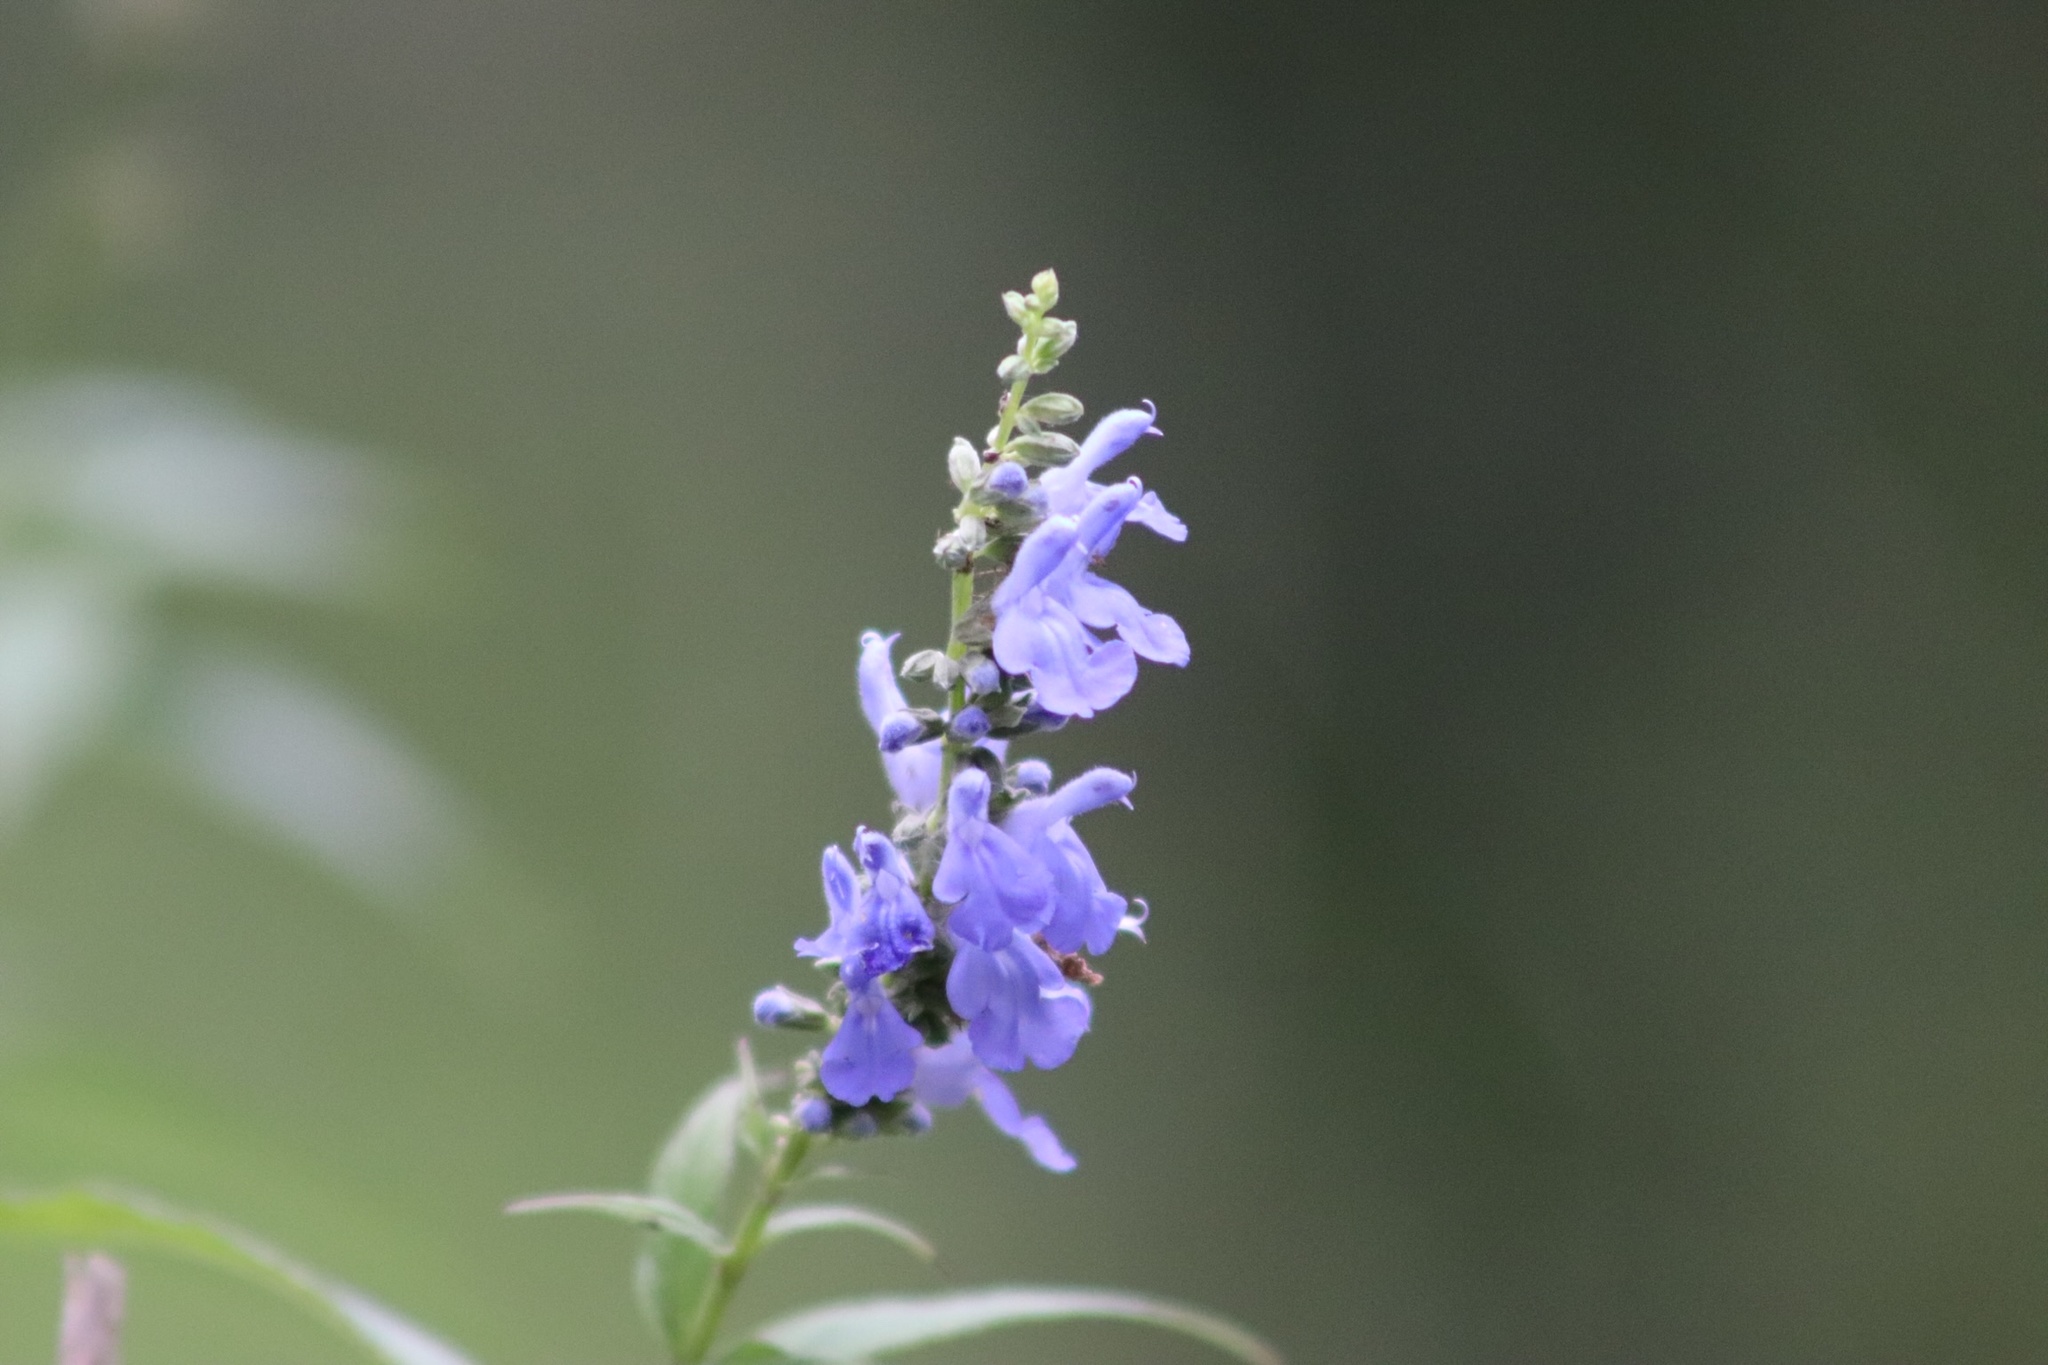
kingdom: Plantae
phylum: Tracheophyta
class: Magnoliopsida
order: Lamiales
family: Lamiaceae
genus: Salvia
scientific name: Salvia connivens
